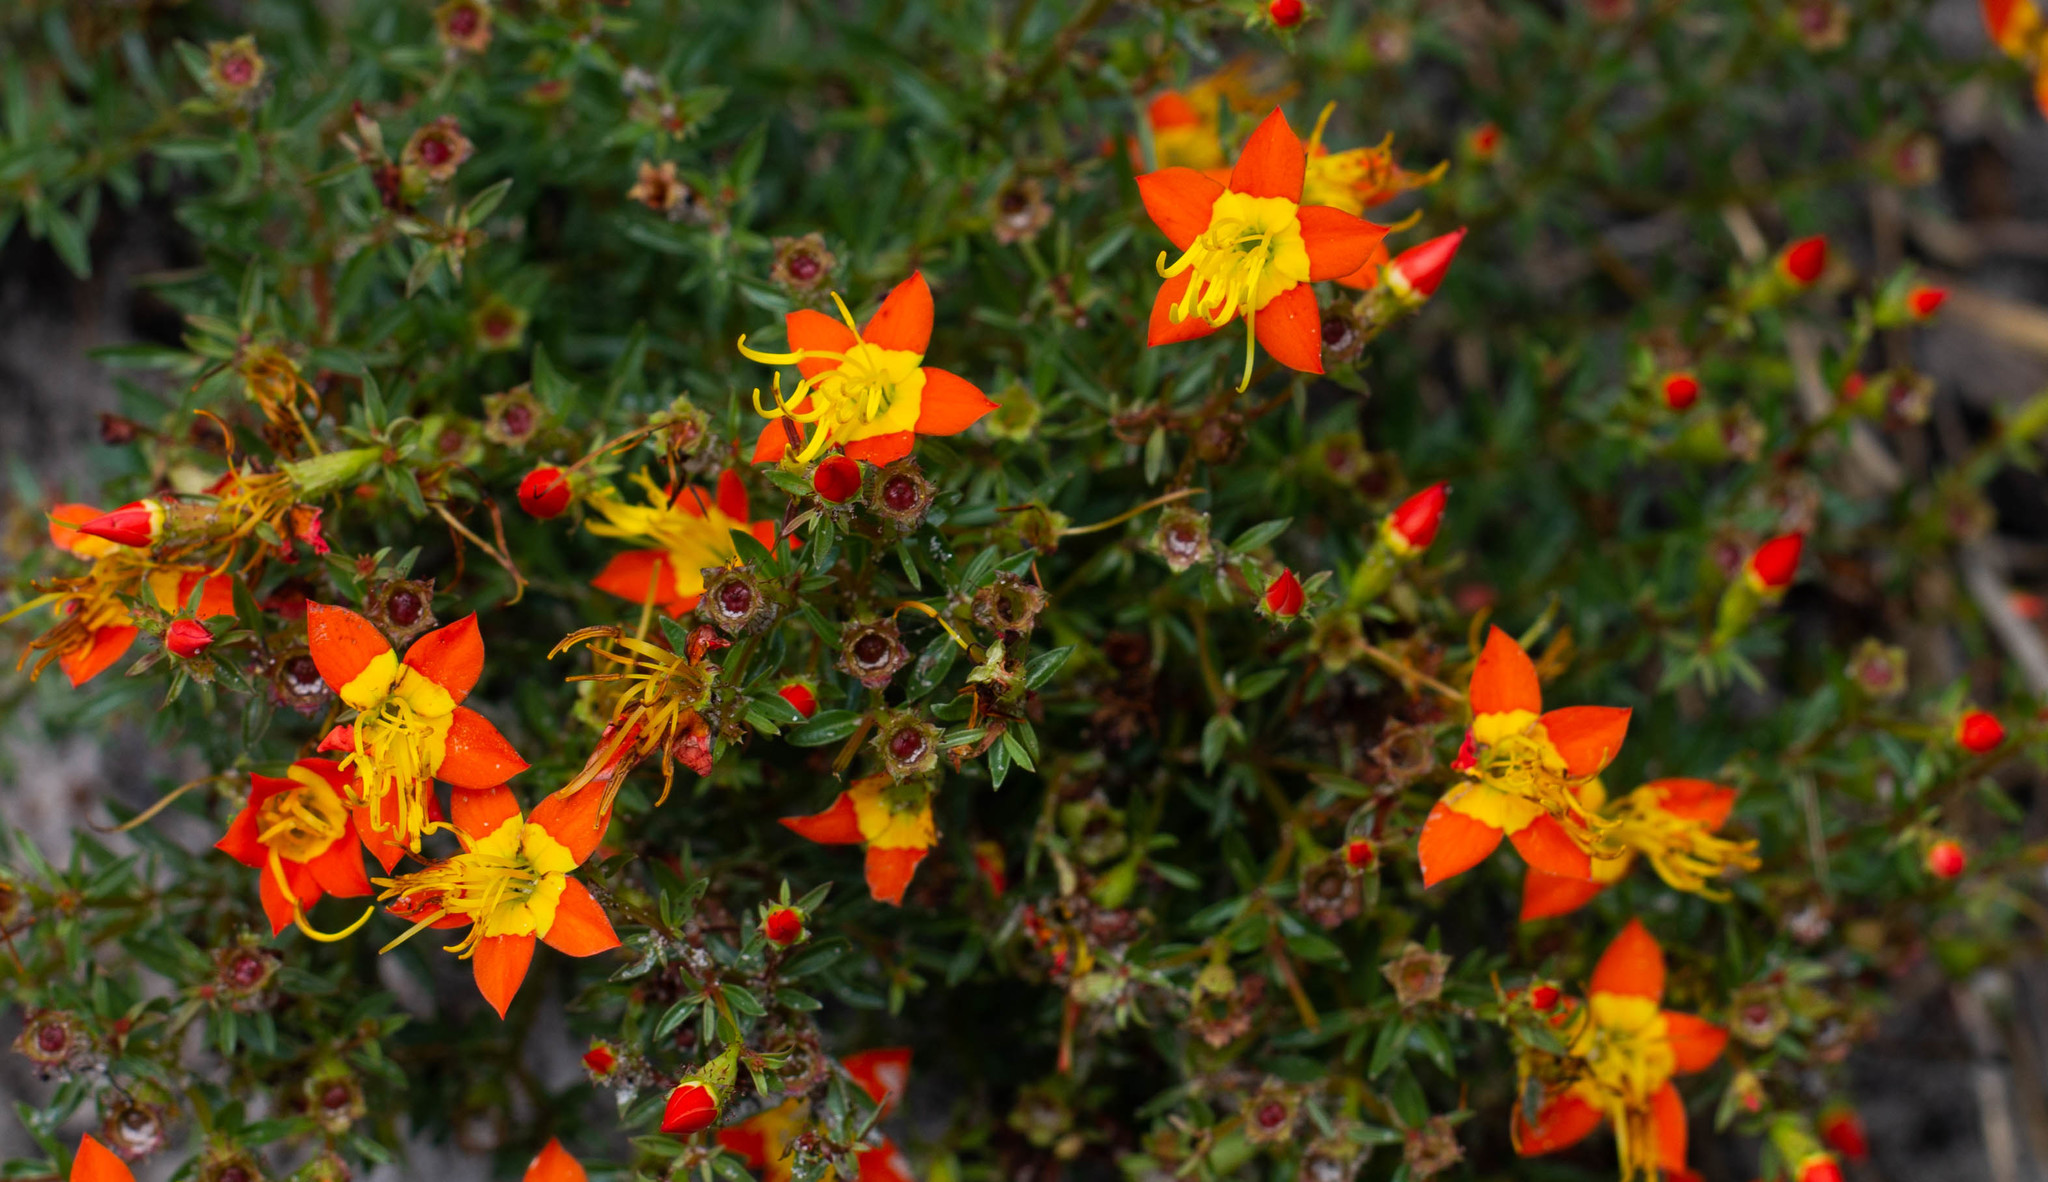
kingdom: Plantae
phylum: Tracheophyta
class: Magnoliopsida
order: Myrtales
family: Melastomataceae
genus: Cambessedesia
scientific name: Cambessedesia hilariana
